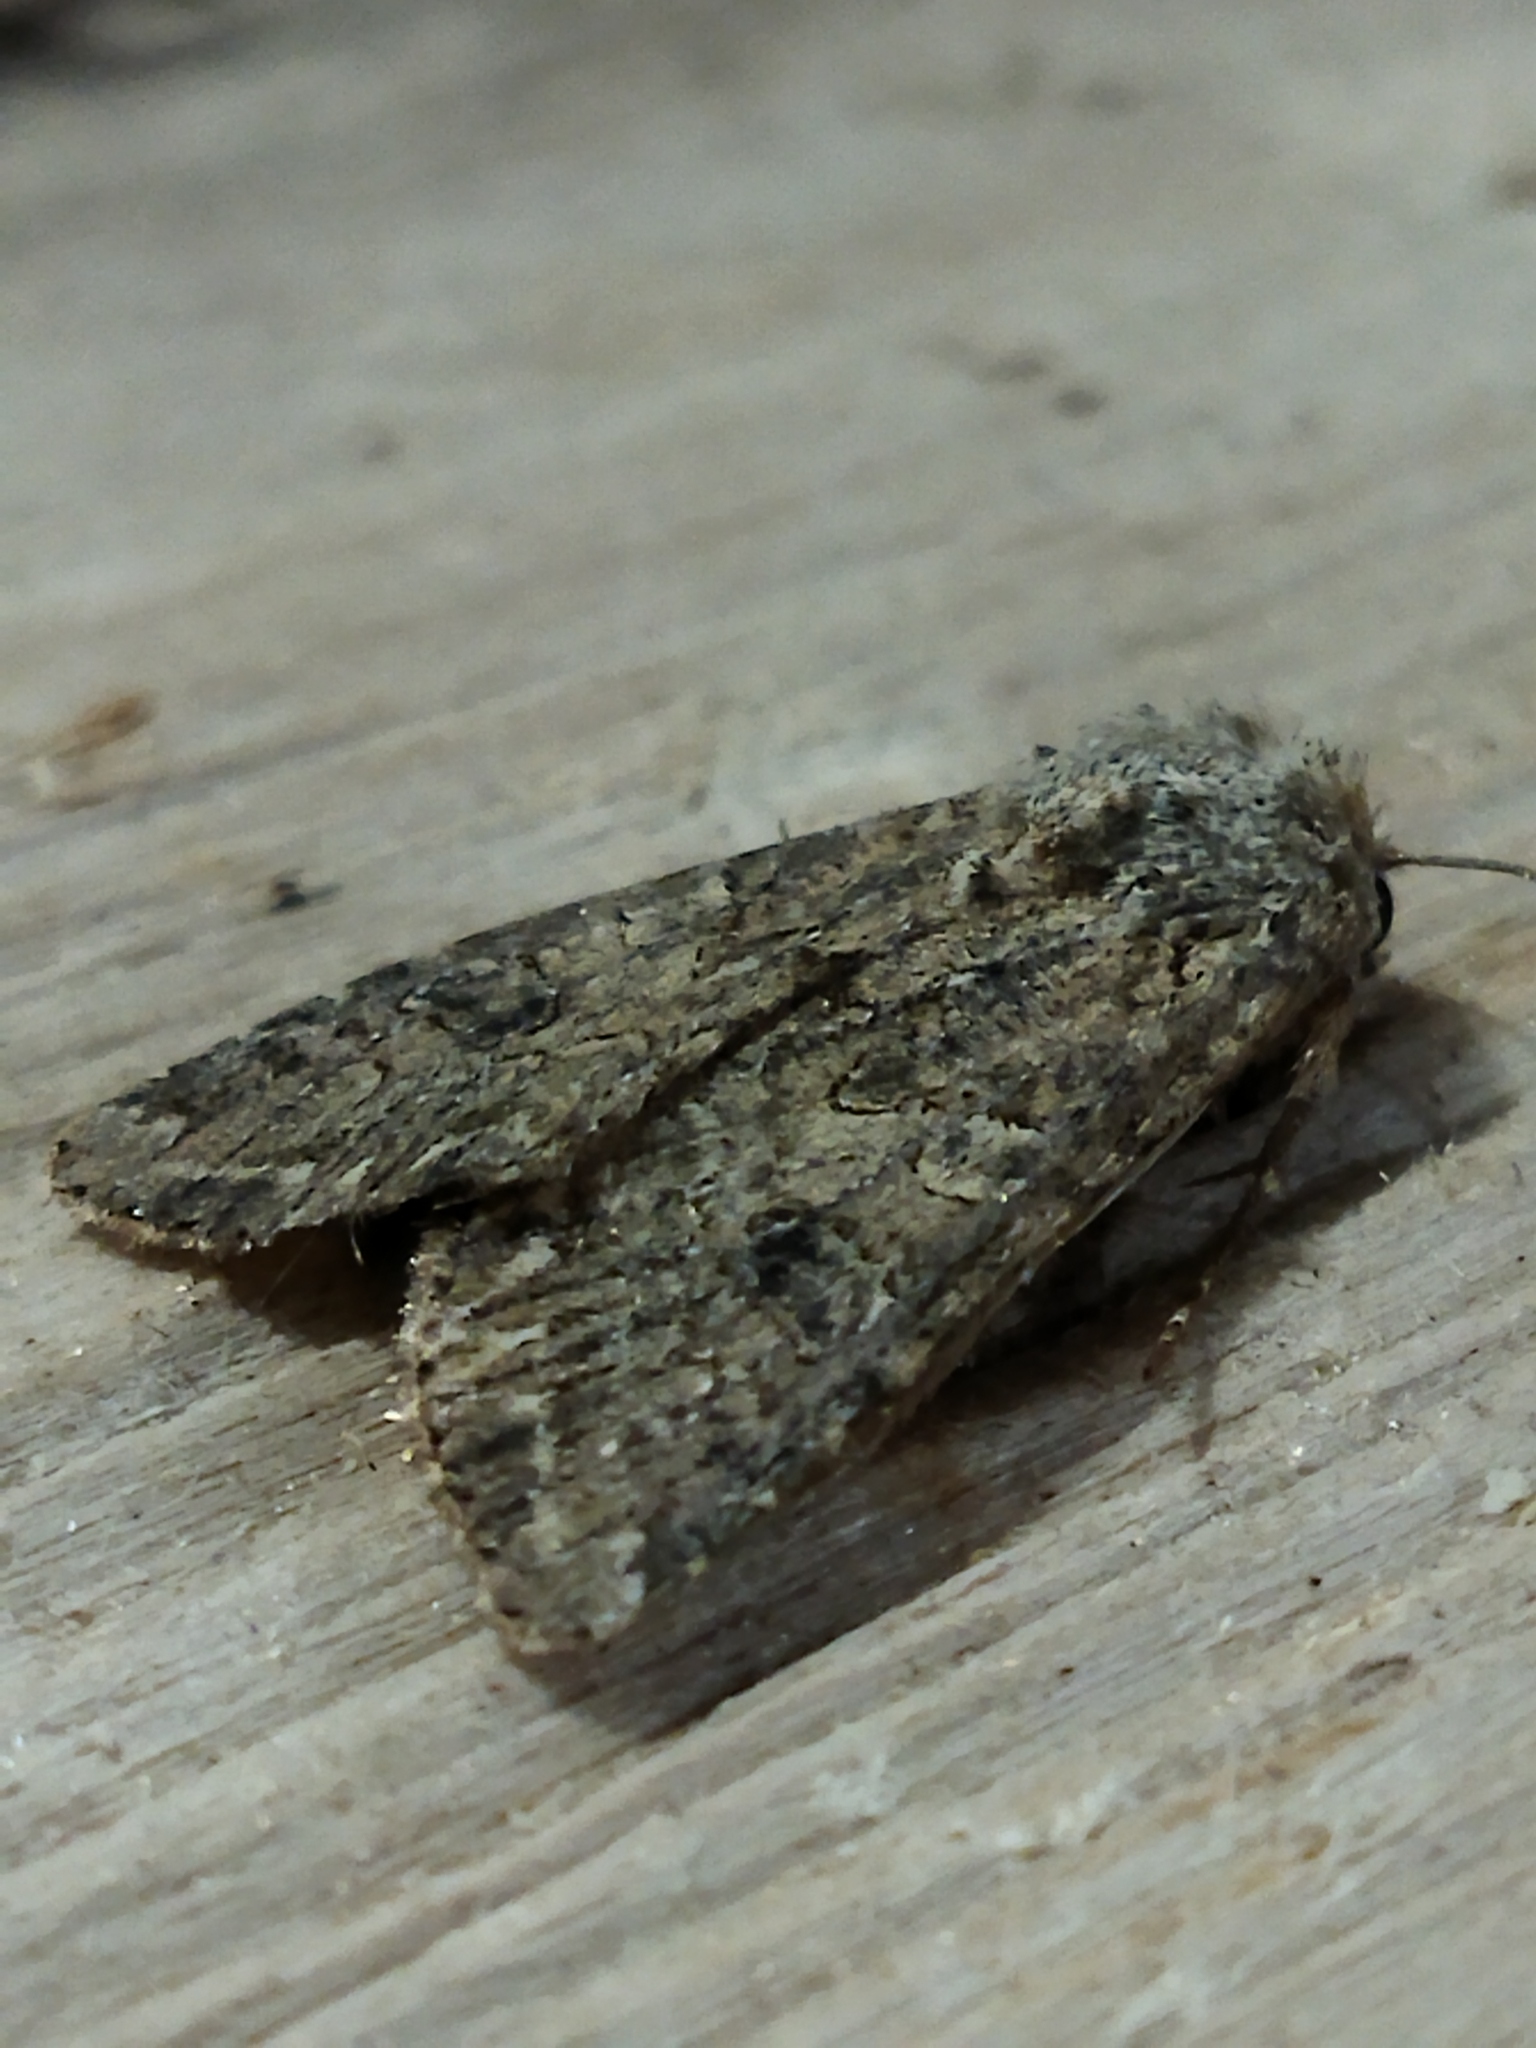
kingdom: Animalia
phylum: Arthropoda
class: Insecta
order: Lepidoptera
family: Noctuidae
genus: Anarta
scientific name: Anarta trifolii
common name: Clover cutworm moth
